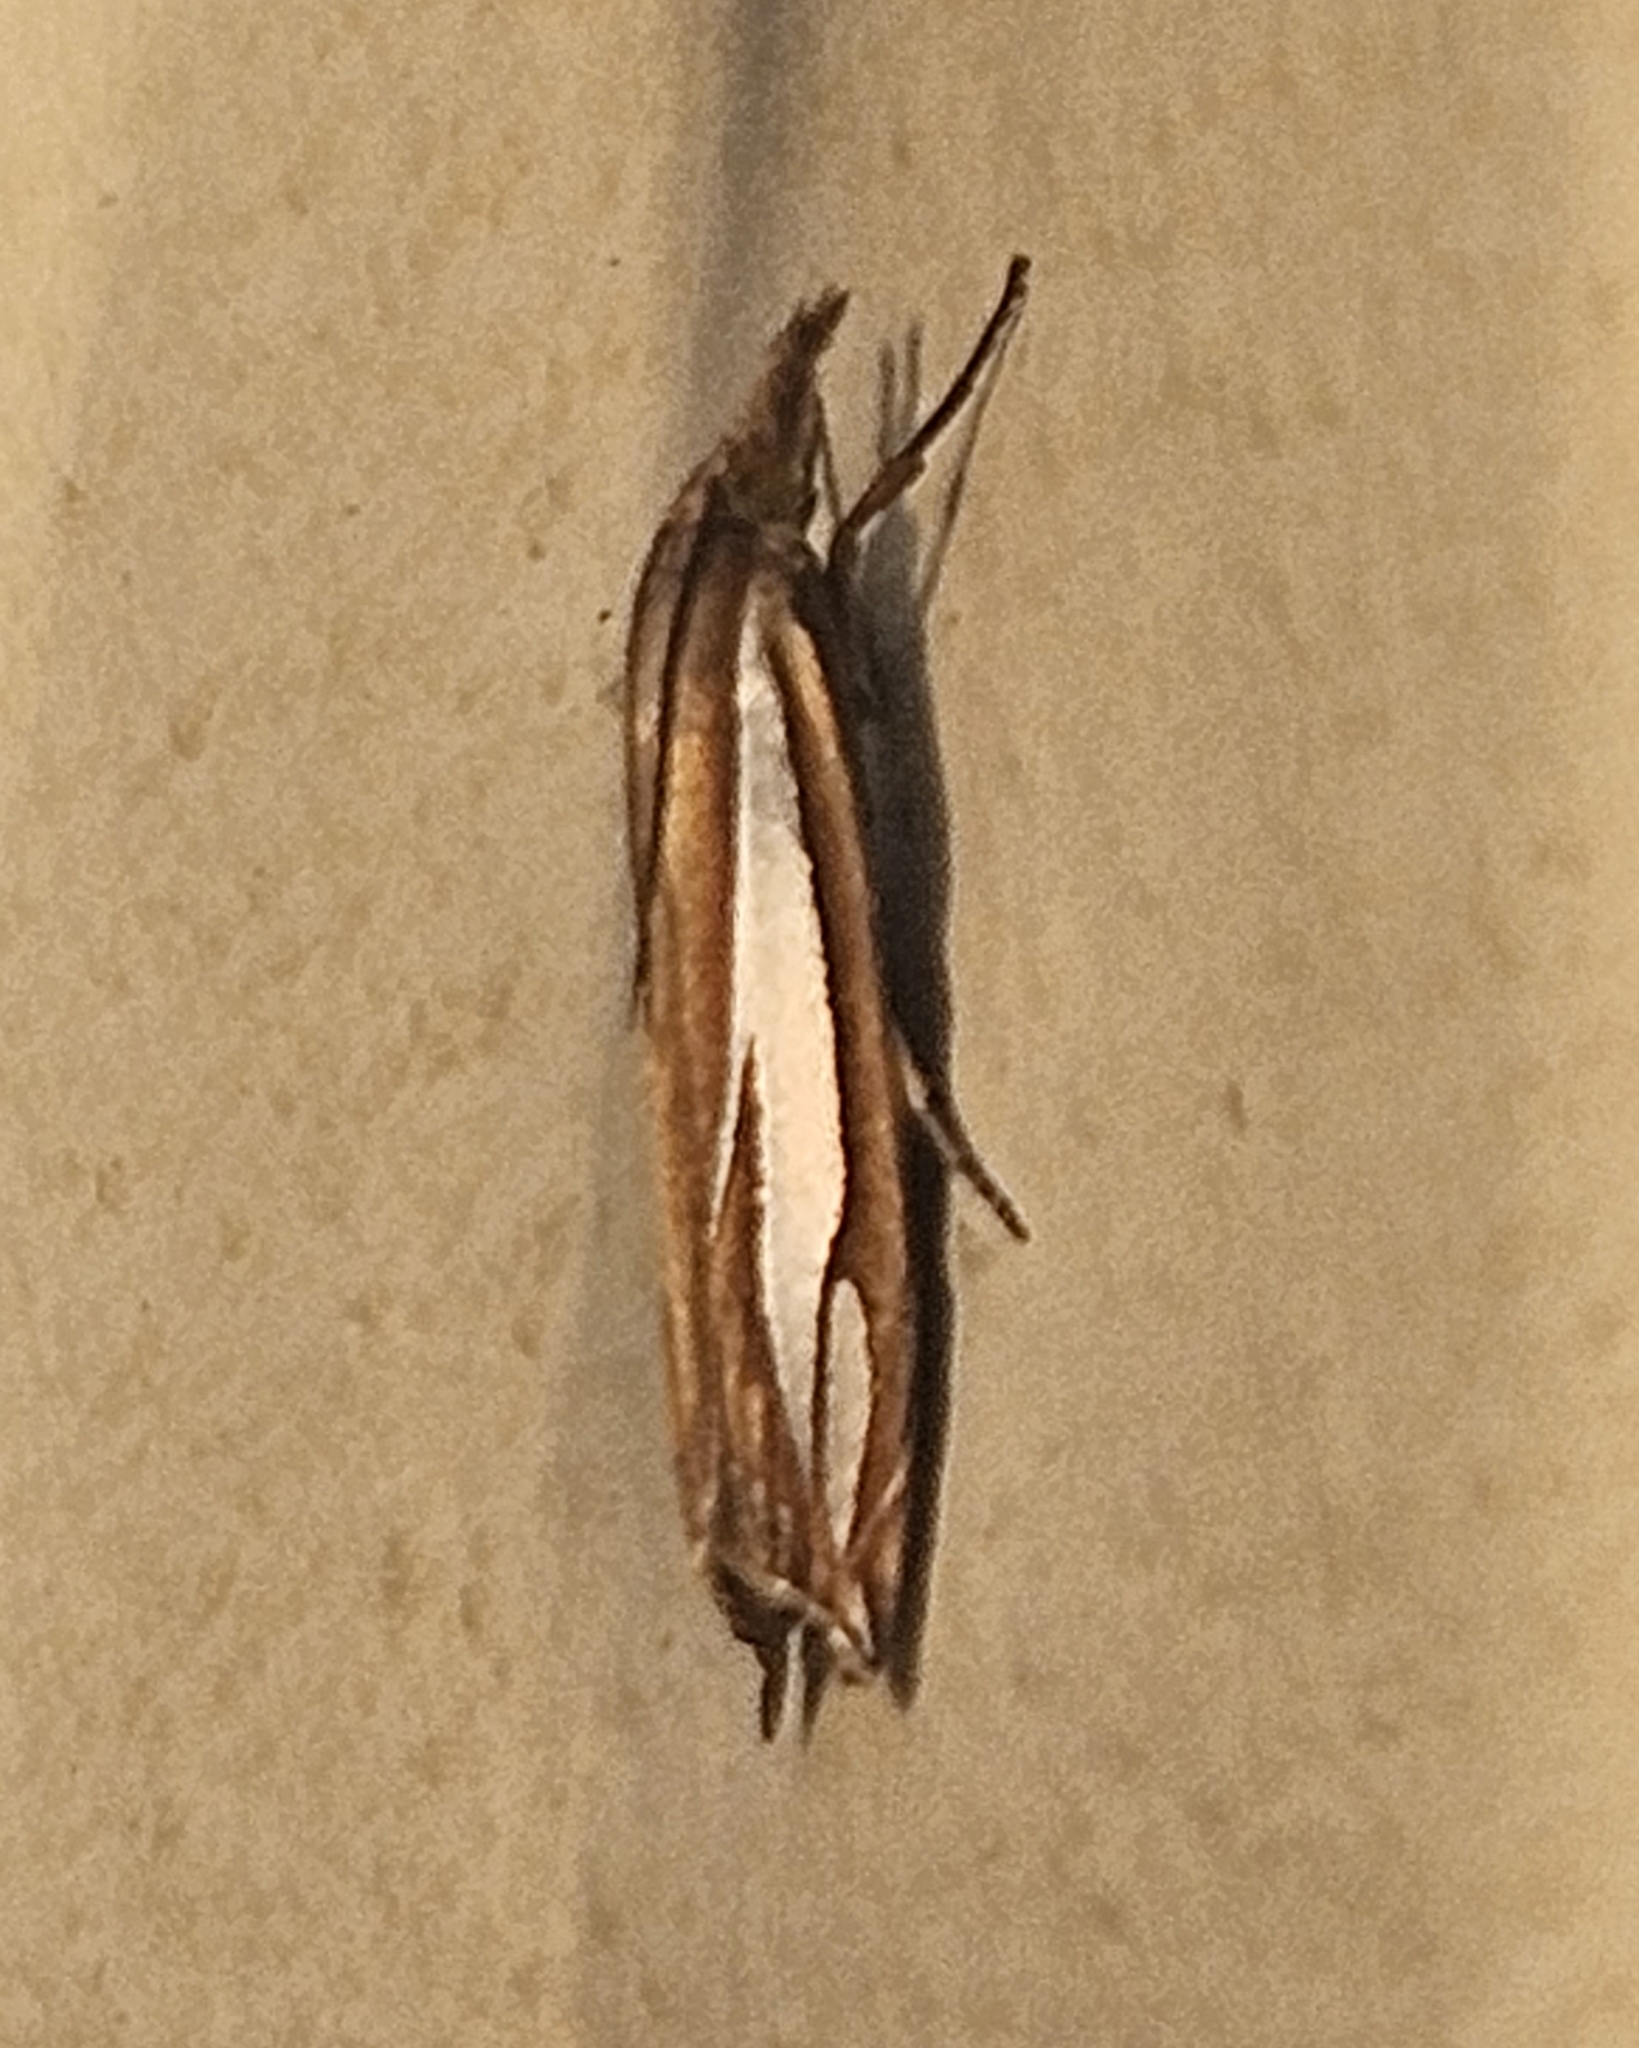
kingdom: Animalia
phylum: Arthropoda
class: Insecta
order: Lepidoptera
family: Crambidae
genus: Crambus
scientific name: Crambus satrapellus
